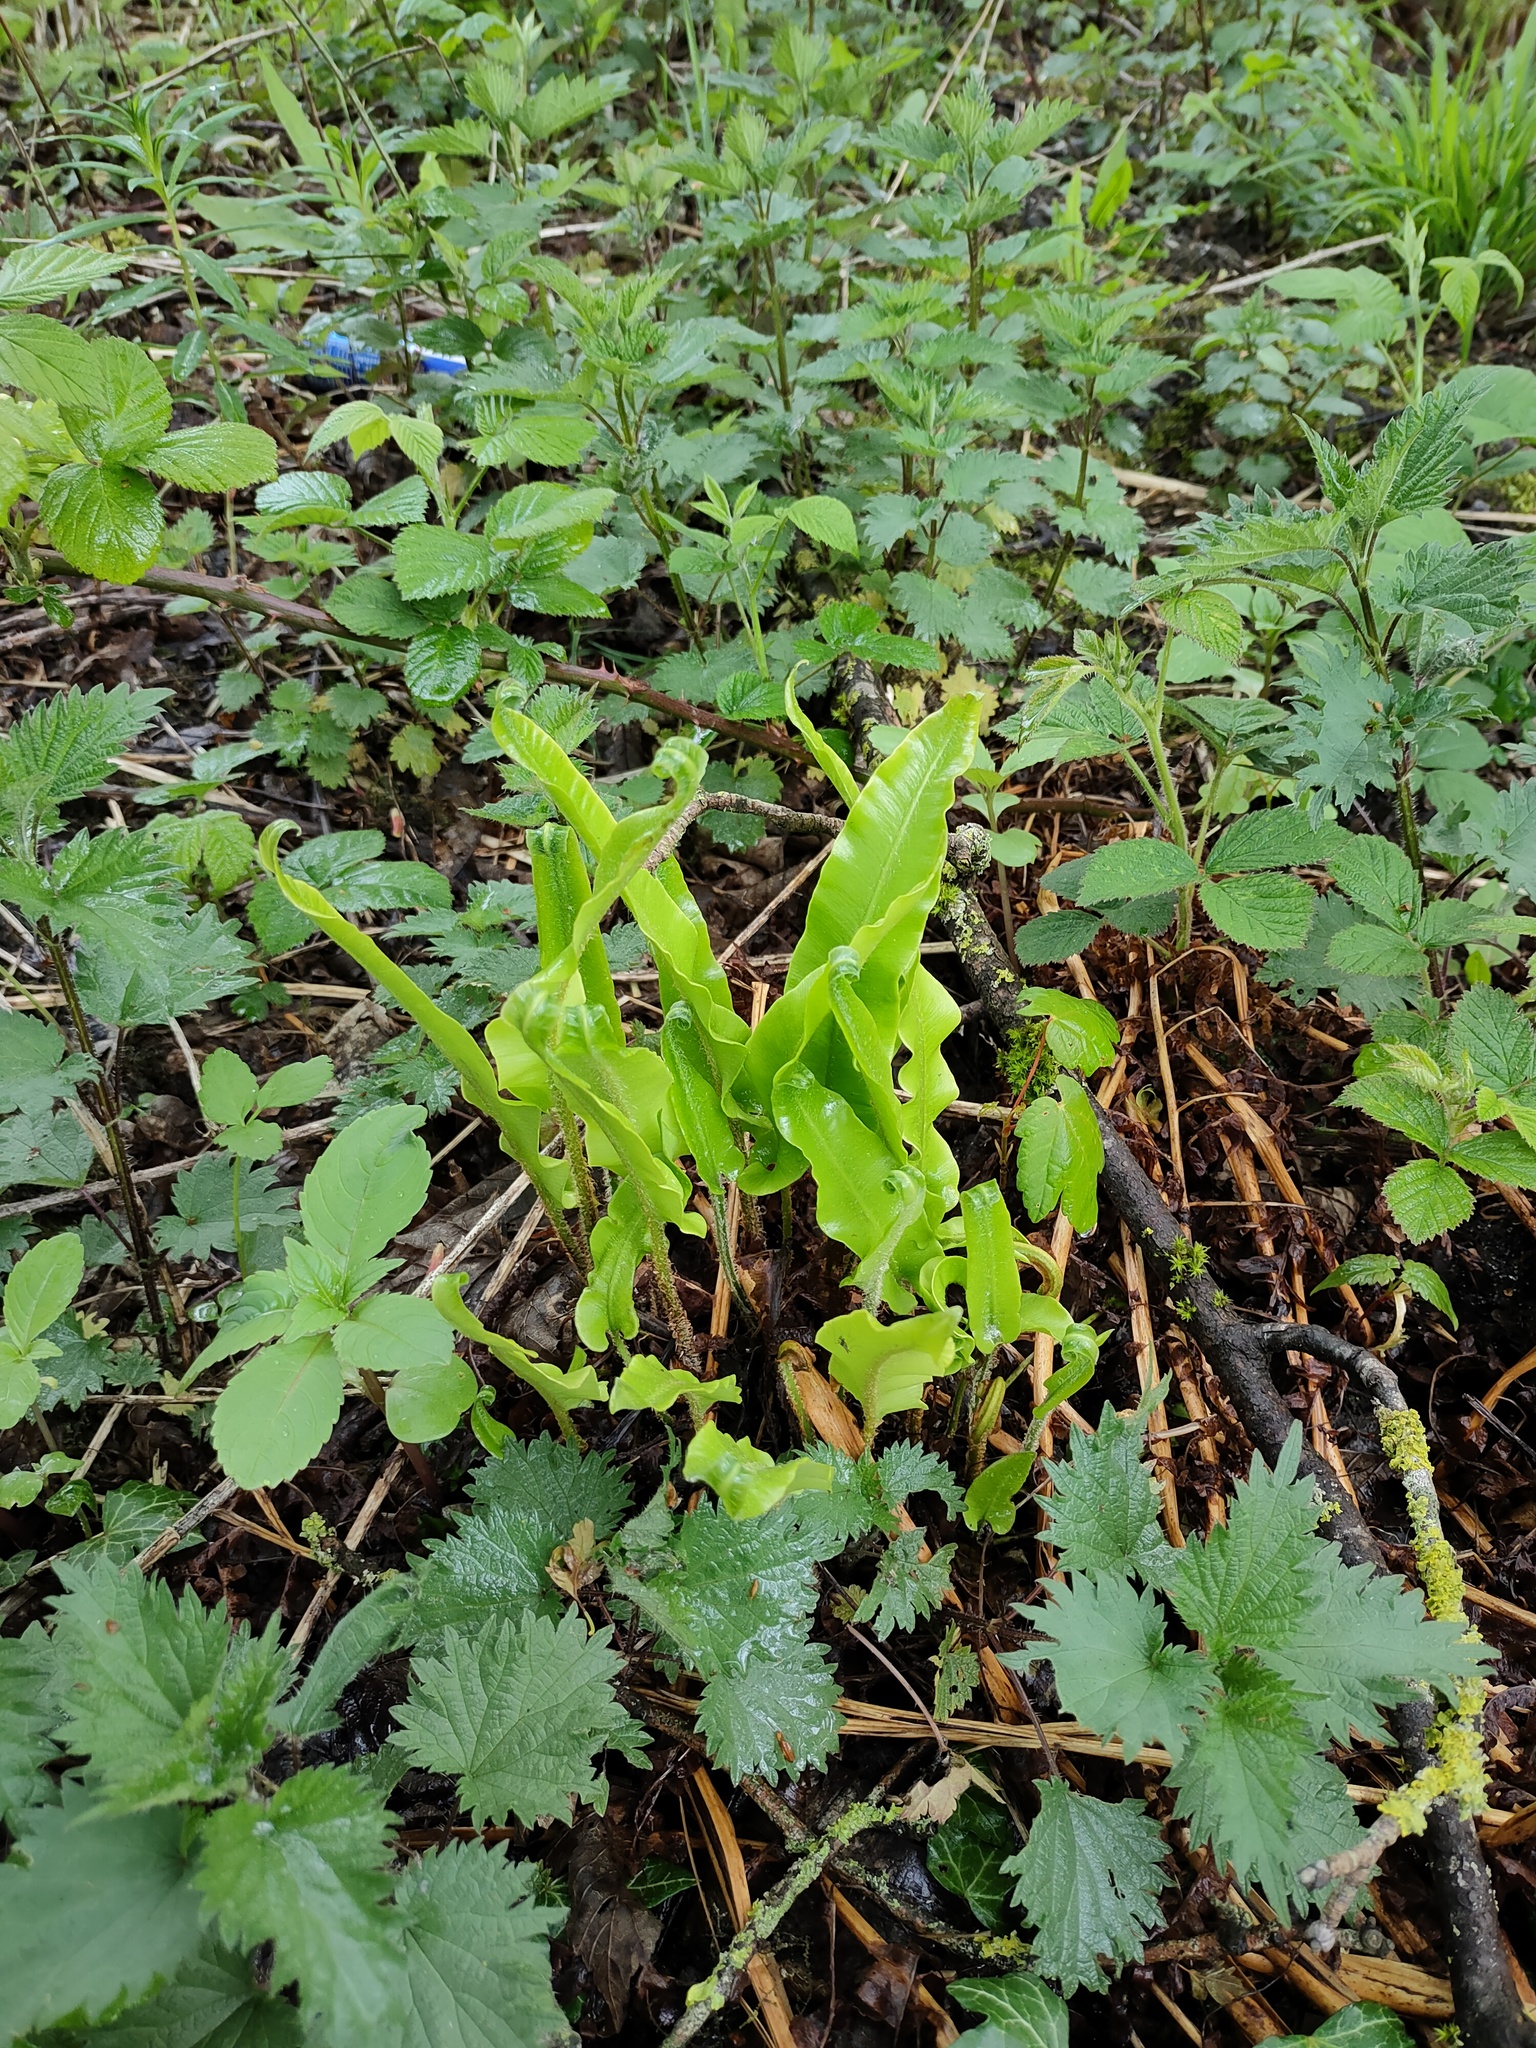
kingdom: Plantae
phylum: Tracheophyta
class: Polypodiopsida
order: Polypodiales
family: Aspleniaceae
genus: Asplenium
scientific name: Asplenium scolopendrium
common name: Hart's-tongue fern
